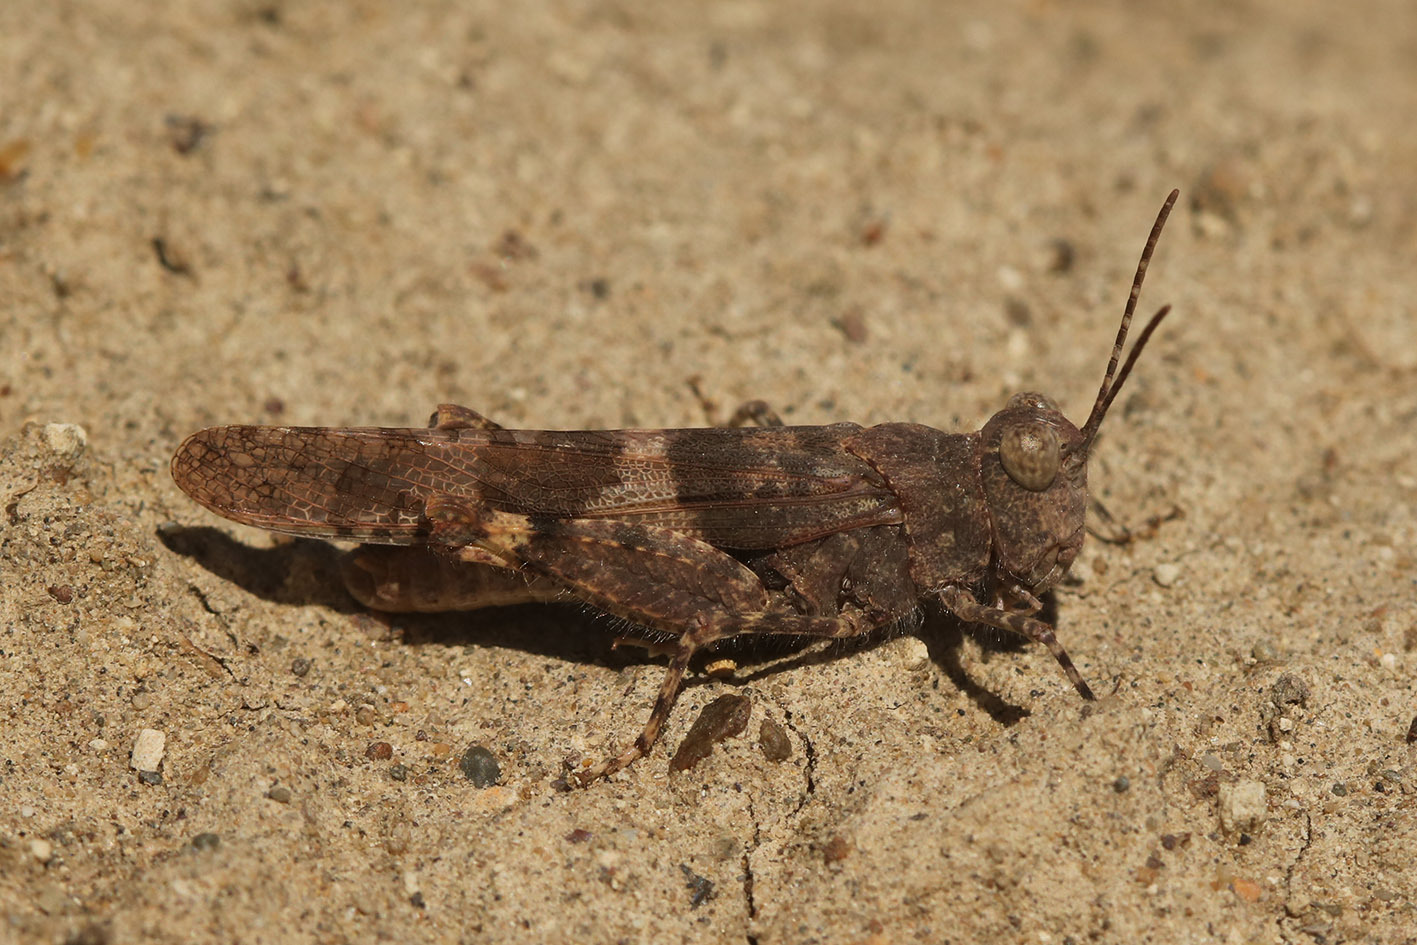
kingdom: Animalia
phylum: Arthropoda
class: Insecta
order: Orthoptera
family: Acrididae
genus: Trimerotropis
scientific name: Trimerotropis pallidipennis
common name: Pallid-winged grasshopper
